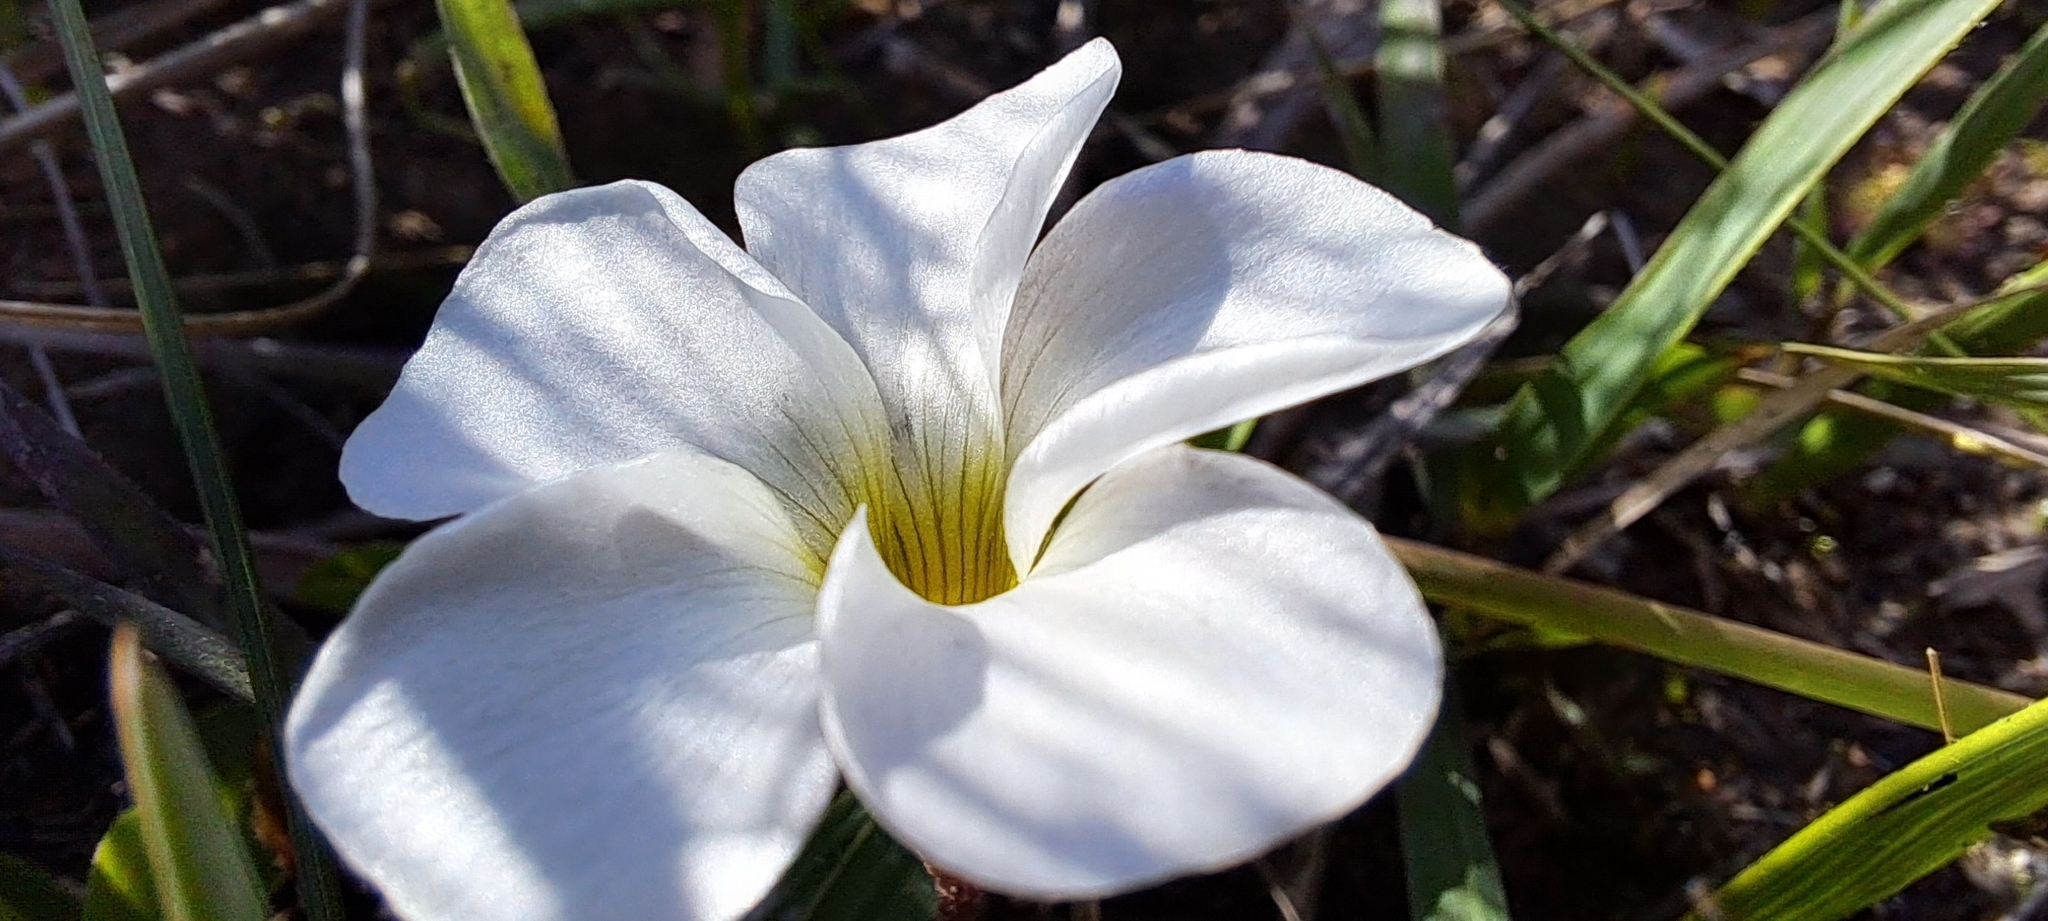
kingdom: Plantae
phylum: Tracheophyta
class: Magnoliopsida
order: Oxalidales
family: Oxalidaceae
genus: Oxalis
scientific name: Oxalis
